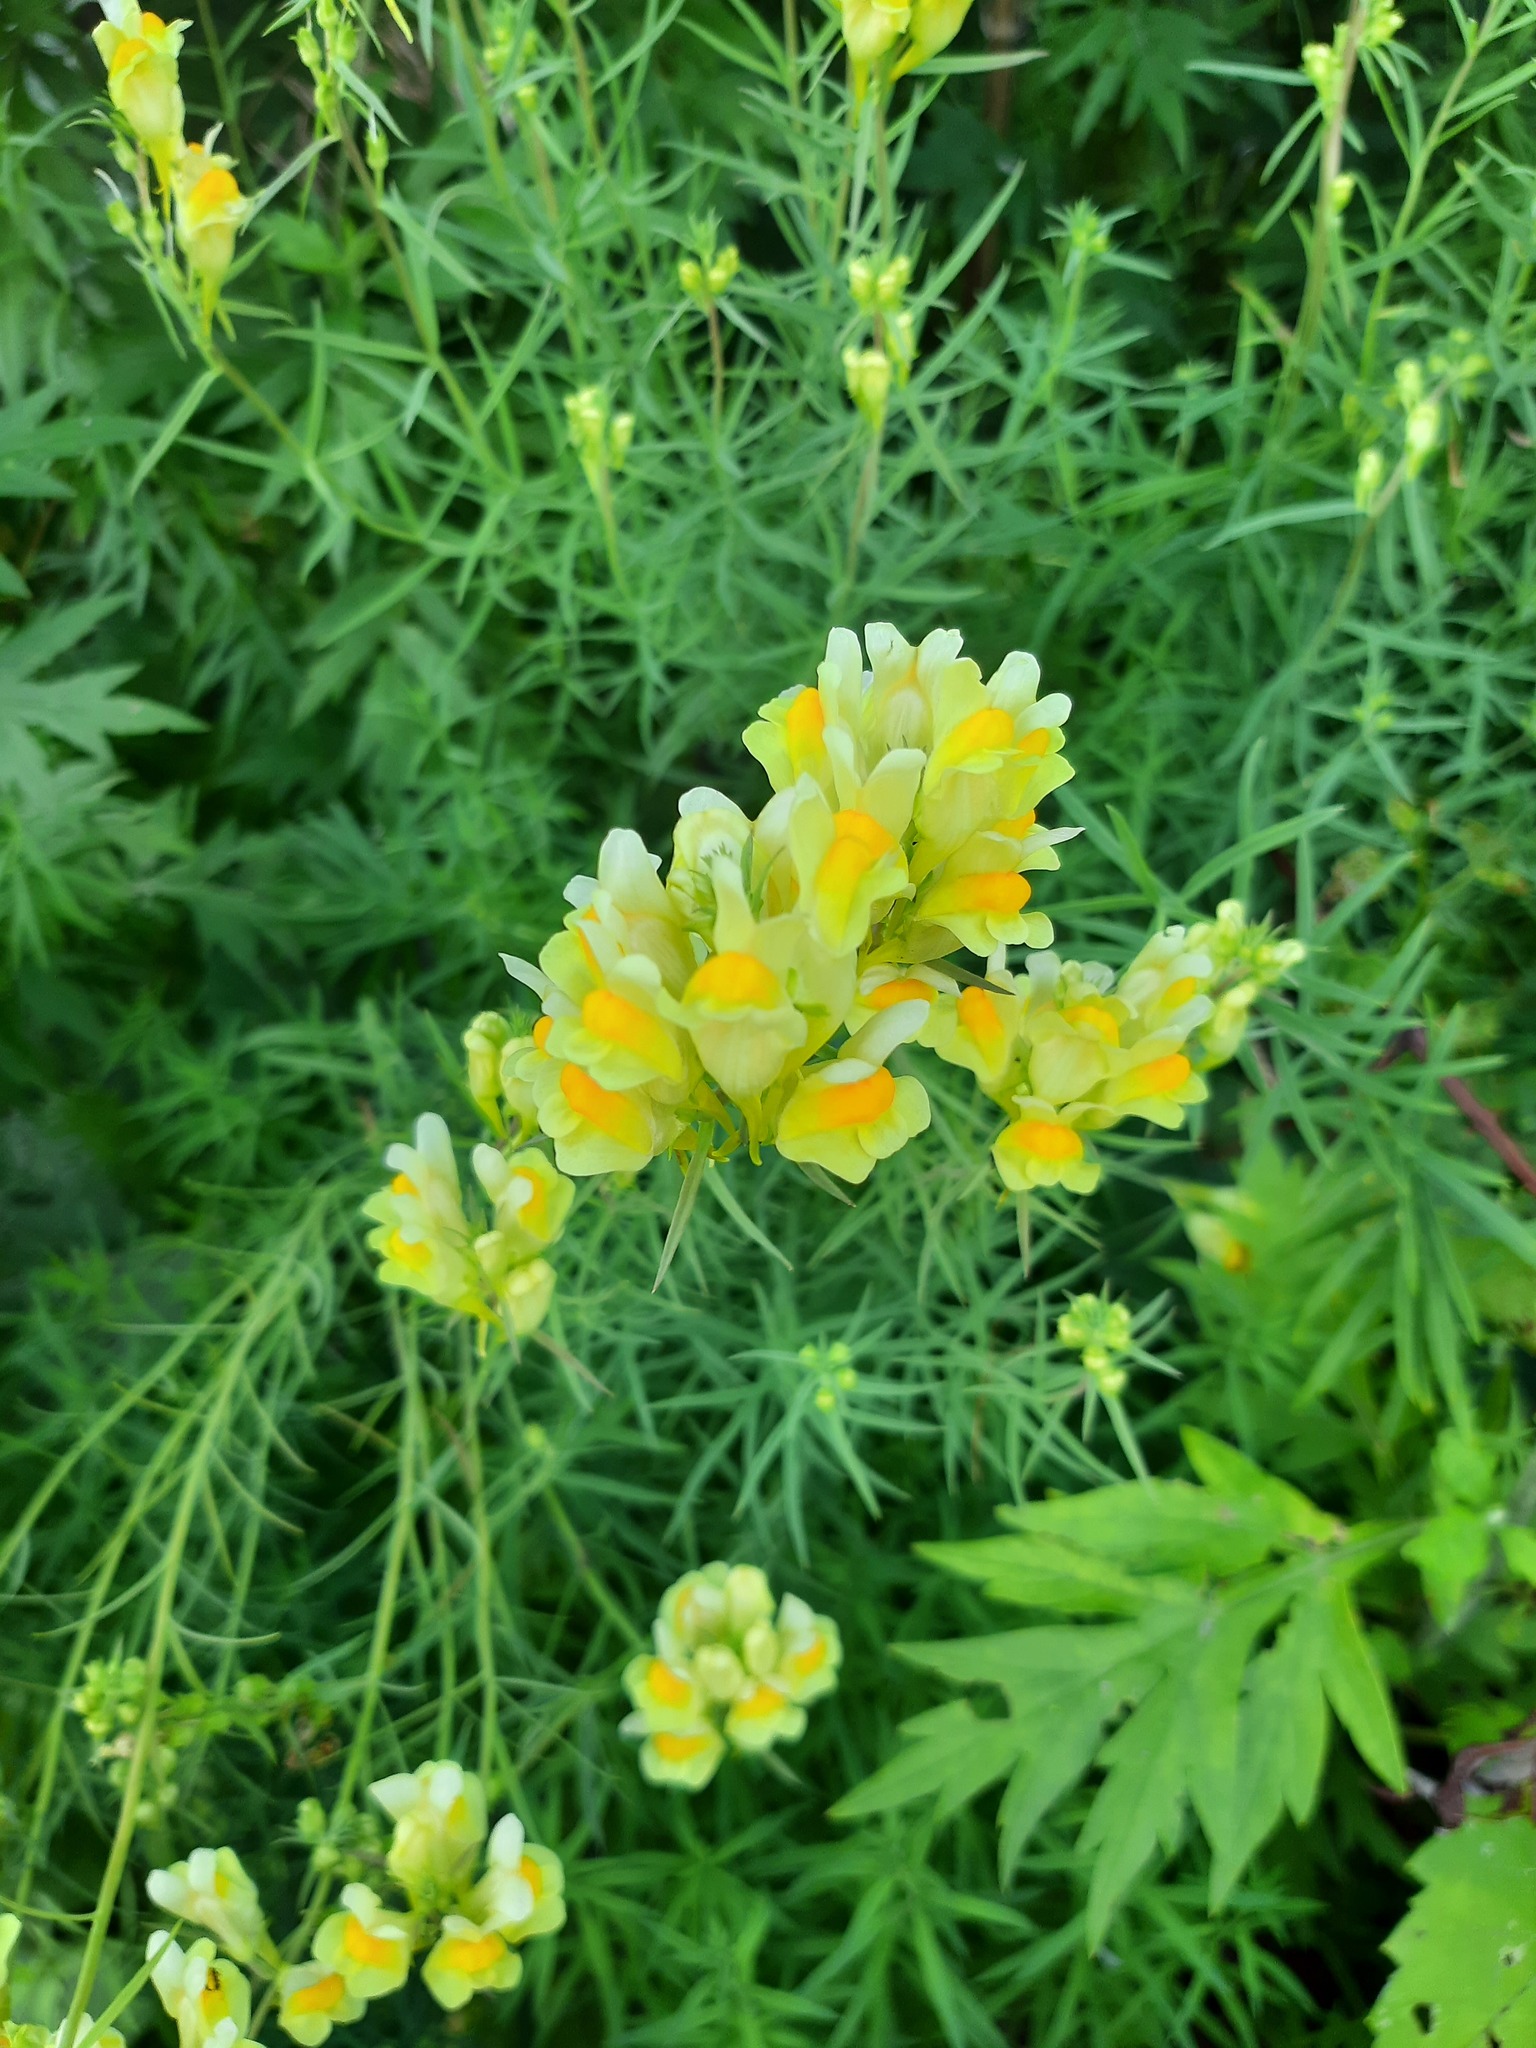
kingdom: Plantae
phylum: Tracheophyta
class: Magnoliopsida
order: Lamiales
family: Plantaginaceae
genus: Linaria
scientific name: Linaria vulgaris
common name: Butter and eggs
